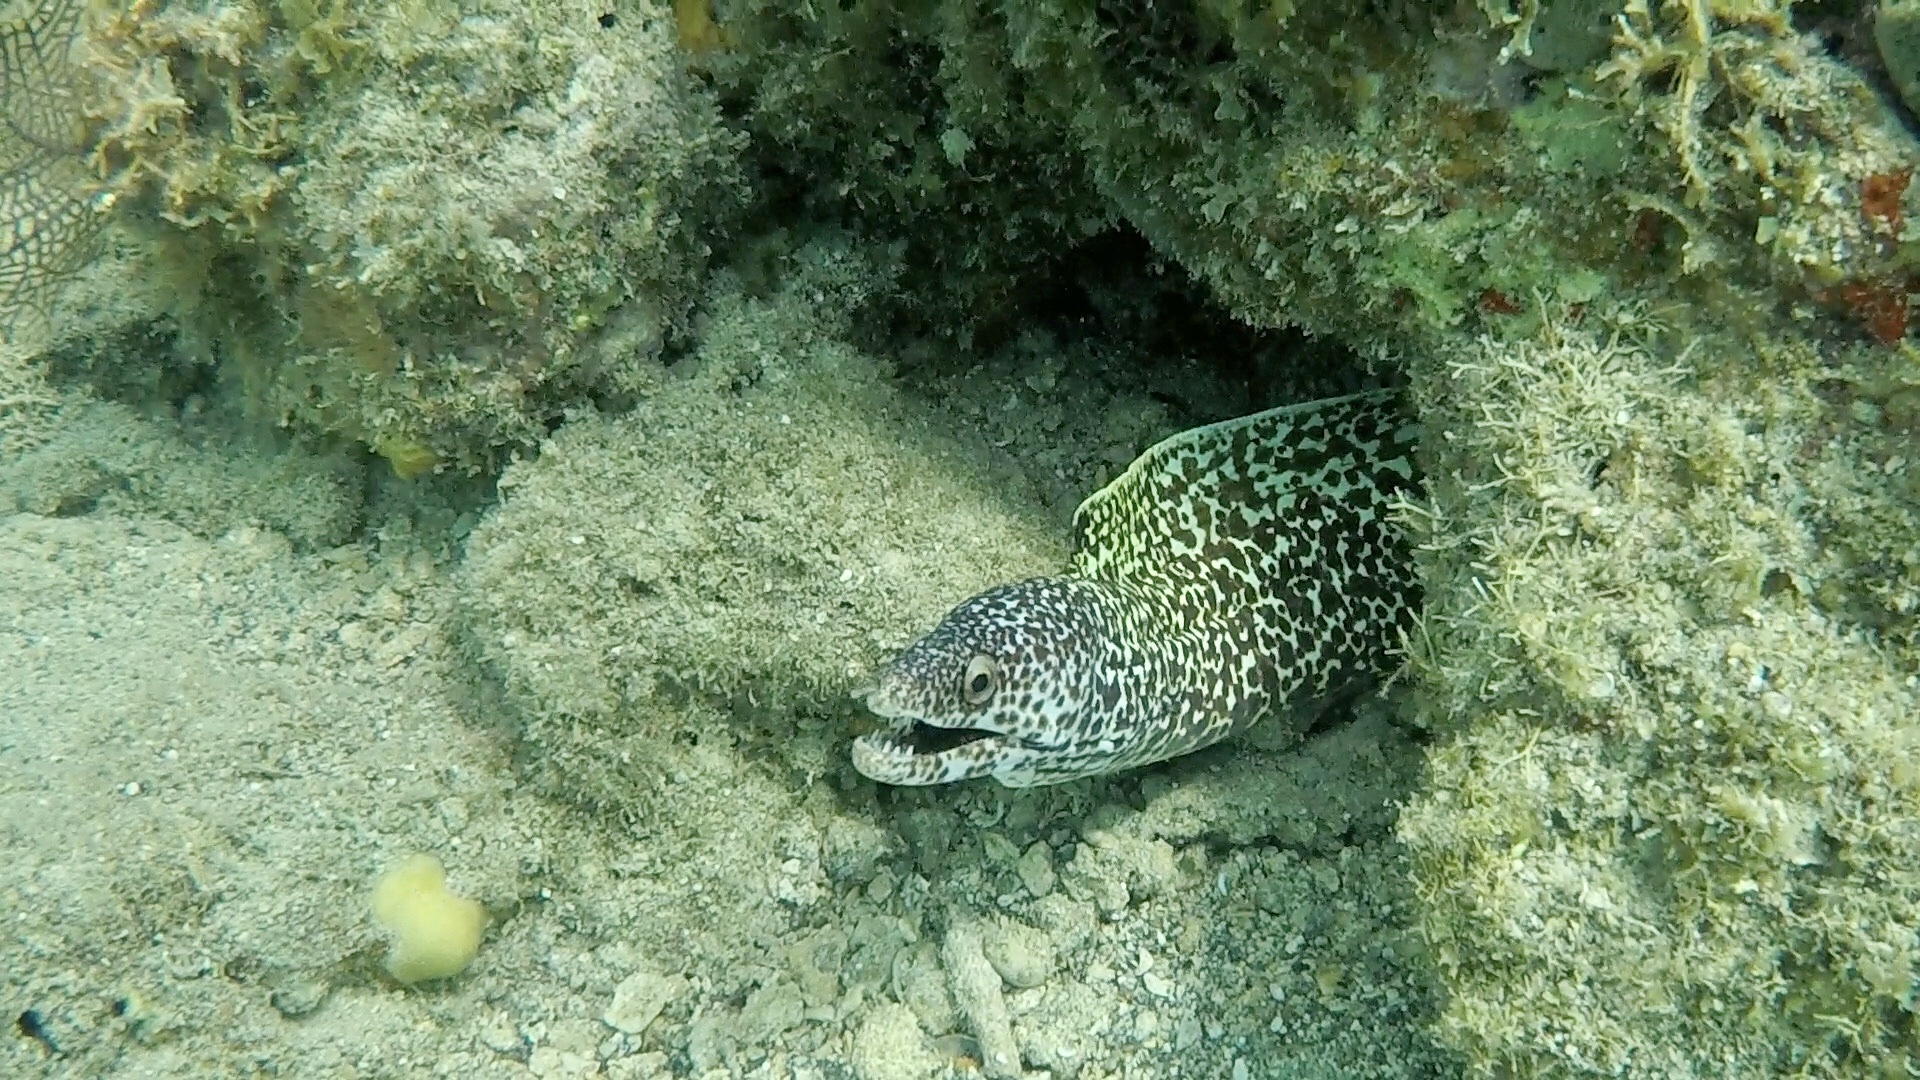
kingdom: Animalia
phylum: Chordata
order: Anguilliformes
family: Muraenidae
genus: Gymnothorax
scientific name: Gymnothorax moringa
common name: Spotted moray
